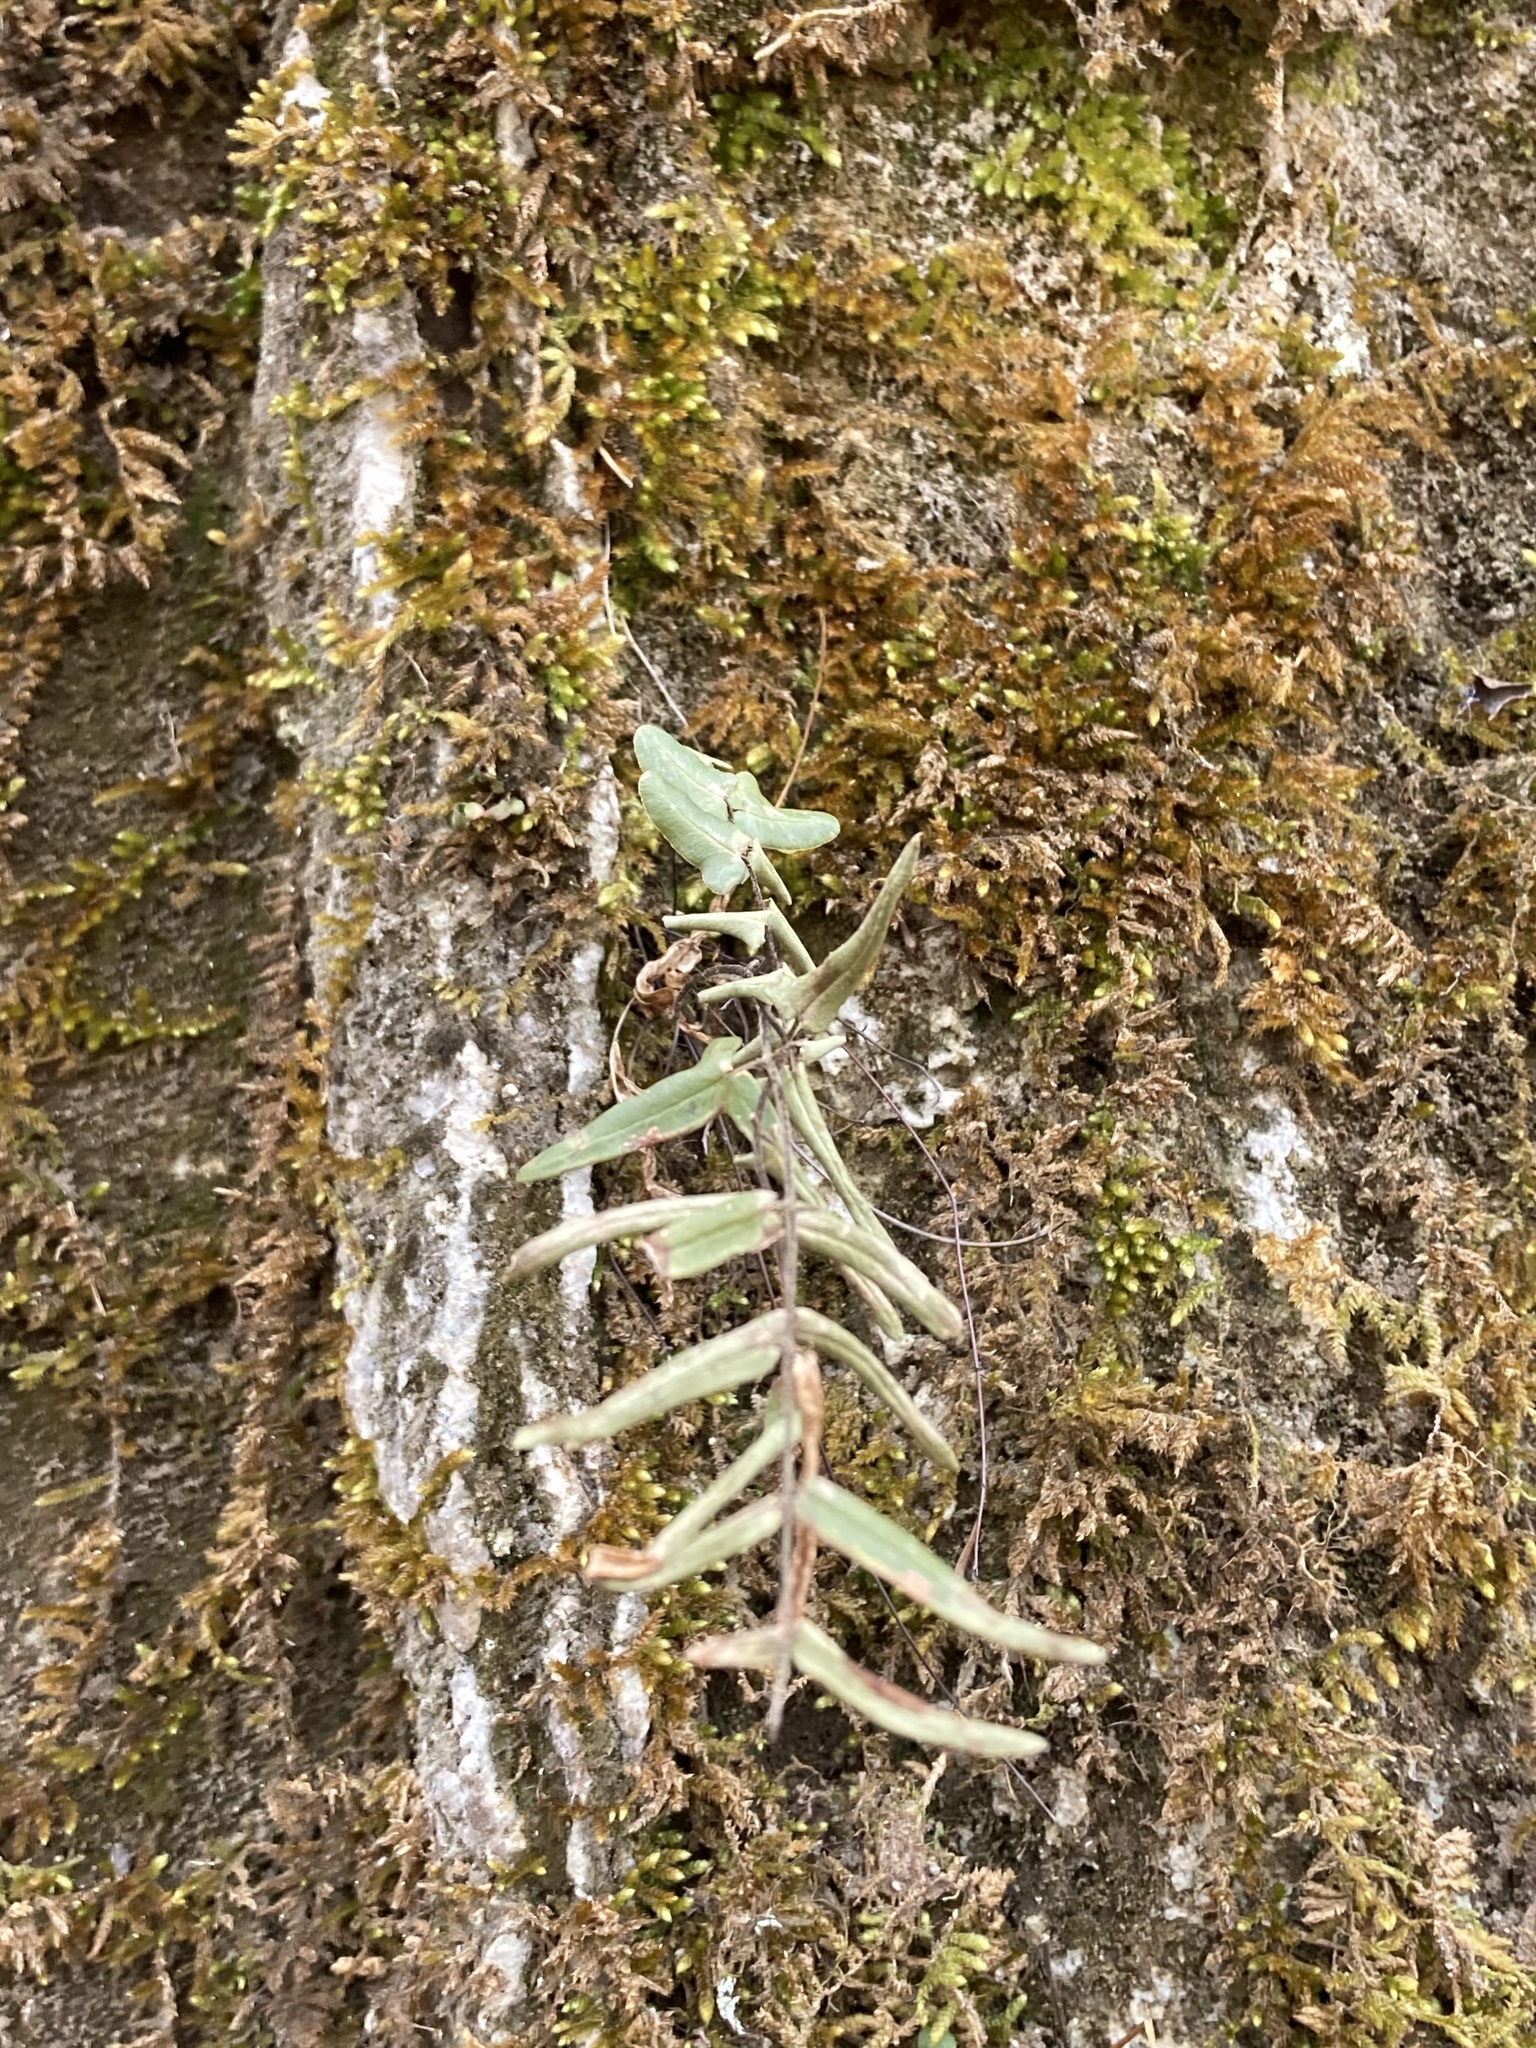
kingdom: Plantae
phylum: Tracheophyta
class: Polypodiopsida
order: Polypodiales
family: Pteridaceae
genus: Pellaea
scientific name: Pellaea atropurpurea
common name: Hairy cliffbrake
